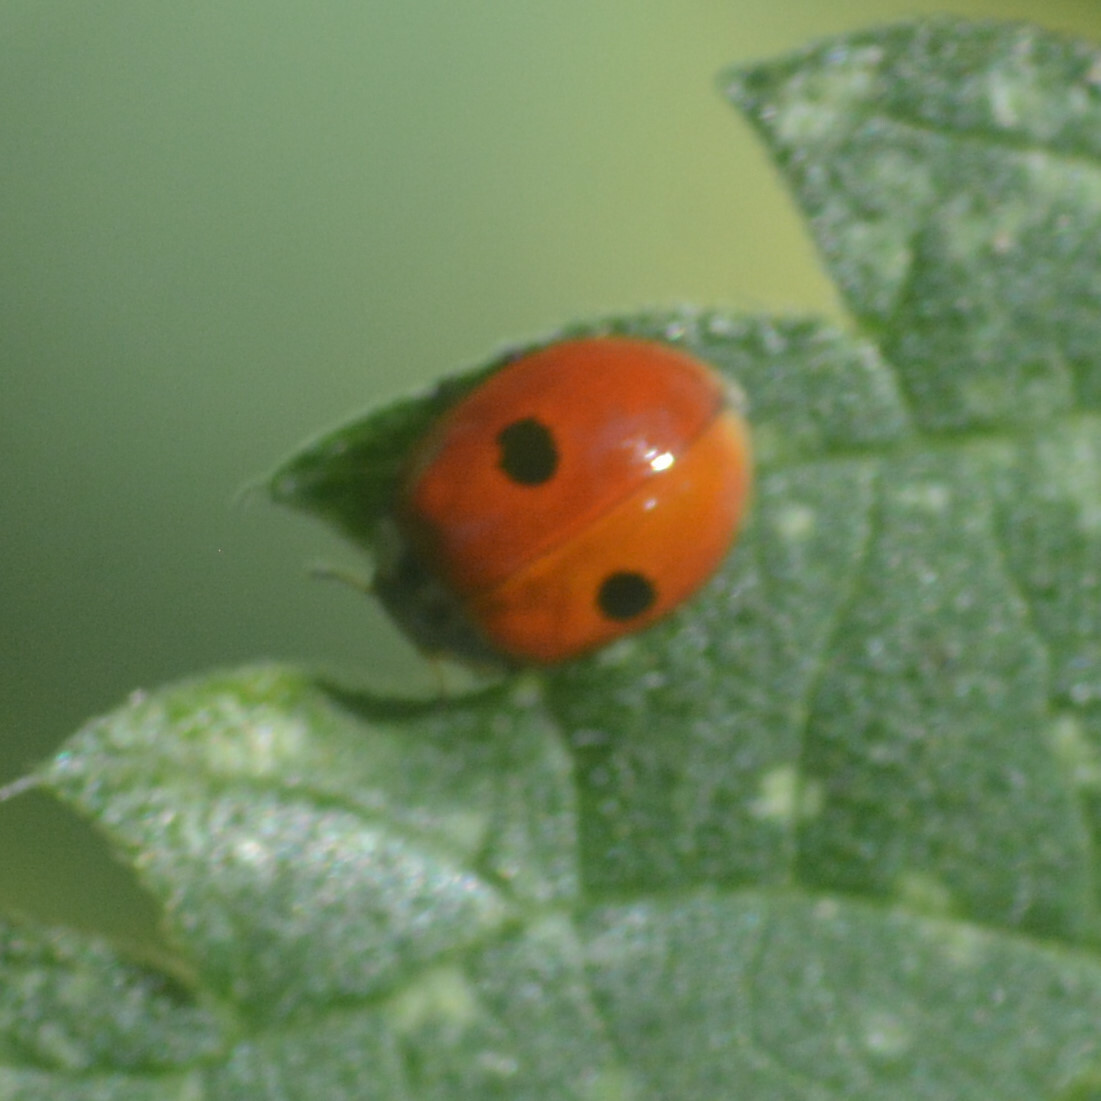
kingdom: Animalia
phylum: Arthropoda
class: Insecta
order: Coleoptera
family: Coccinellidae
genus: Adalia
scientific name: Adalia bipunctata
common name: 2-spot ladybird
